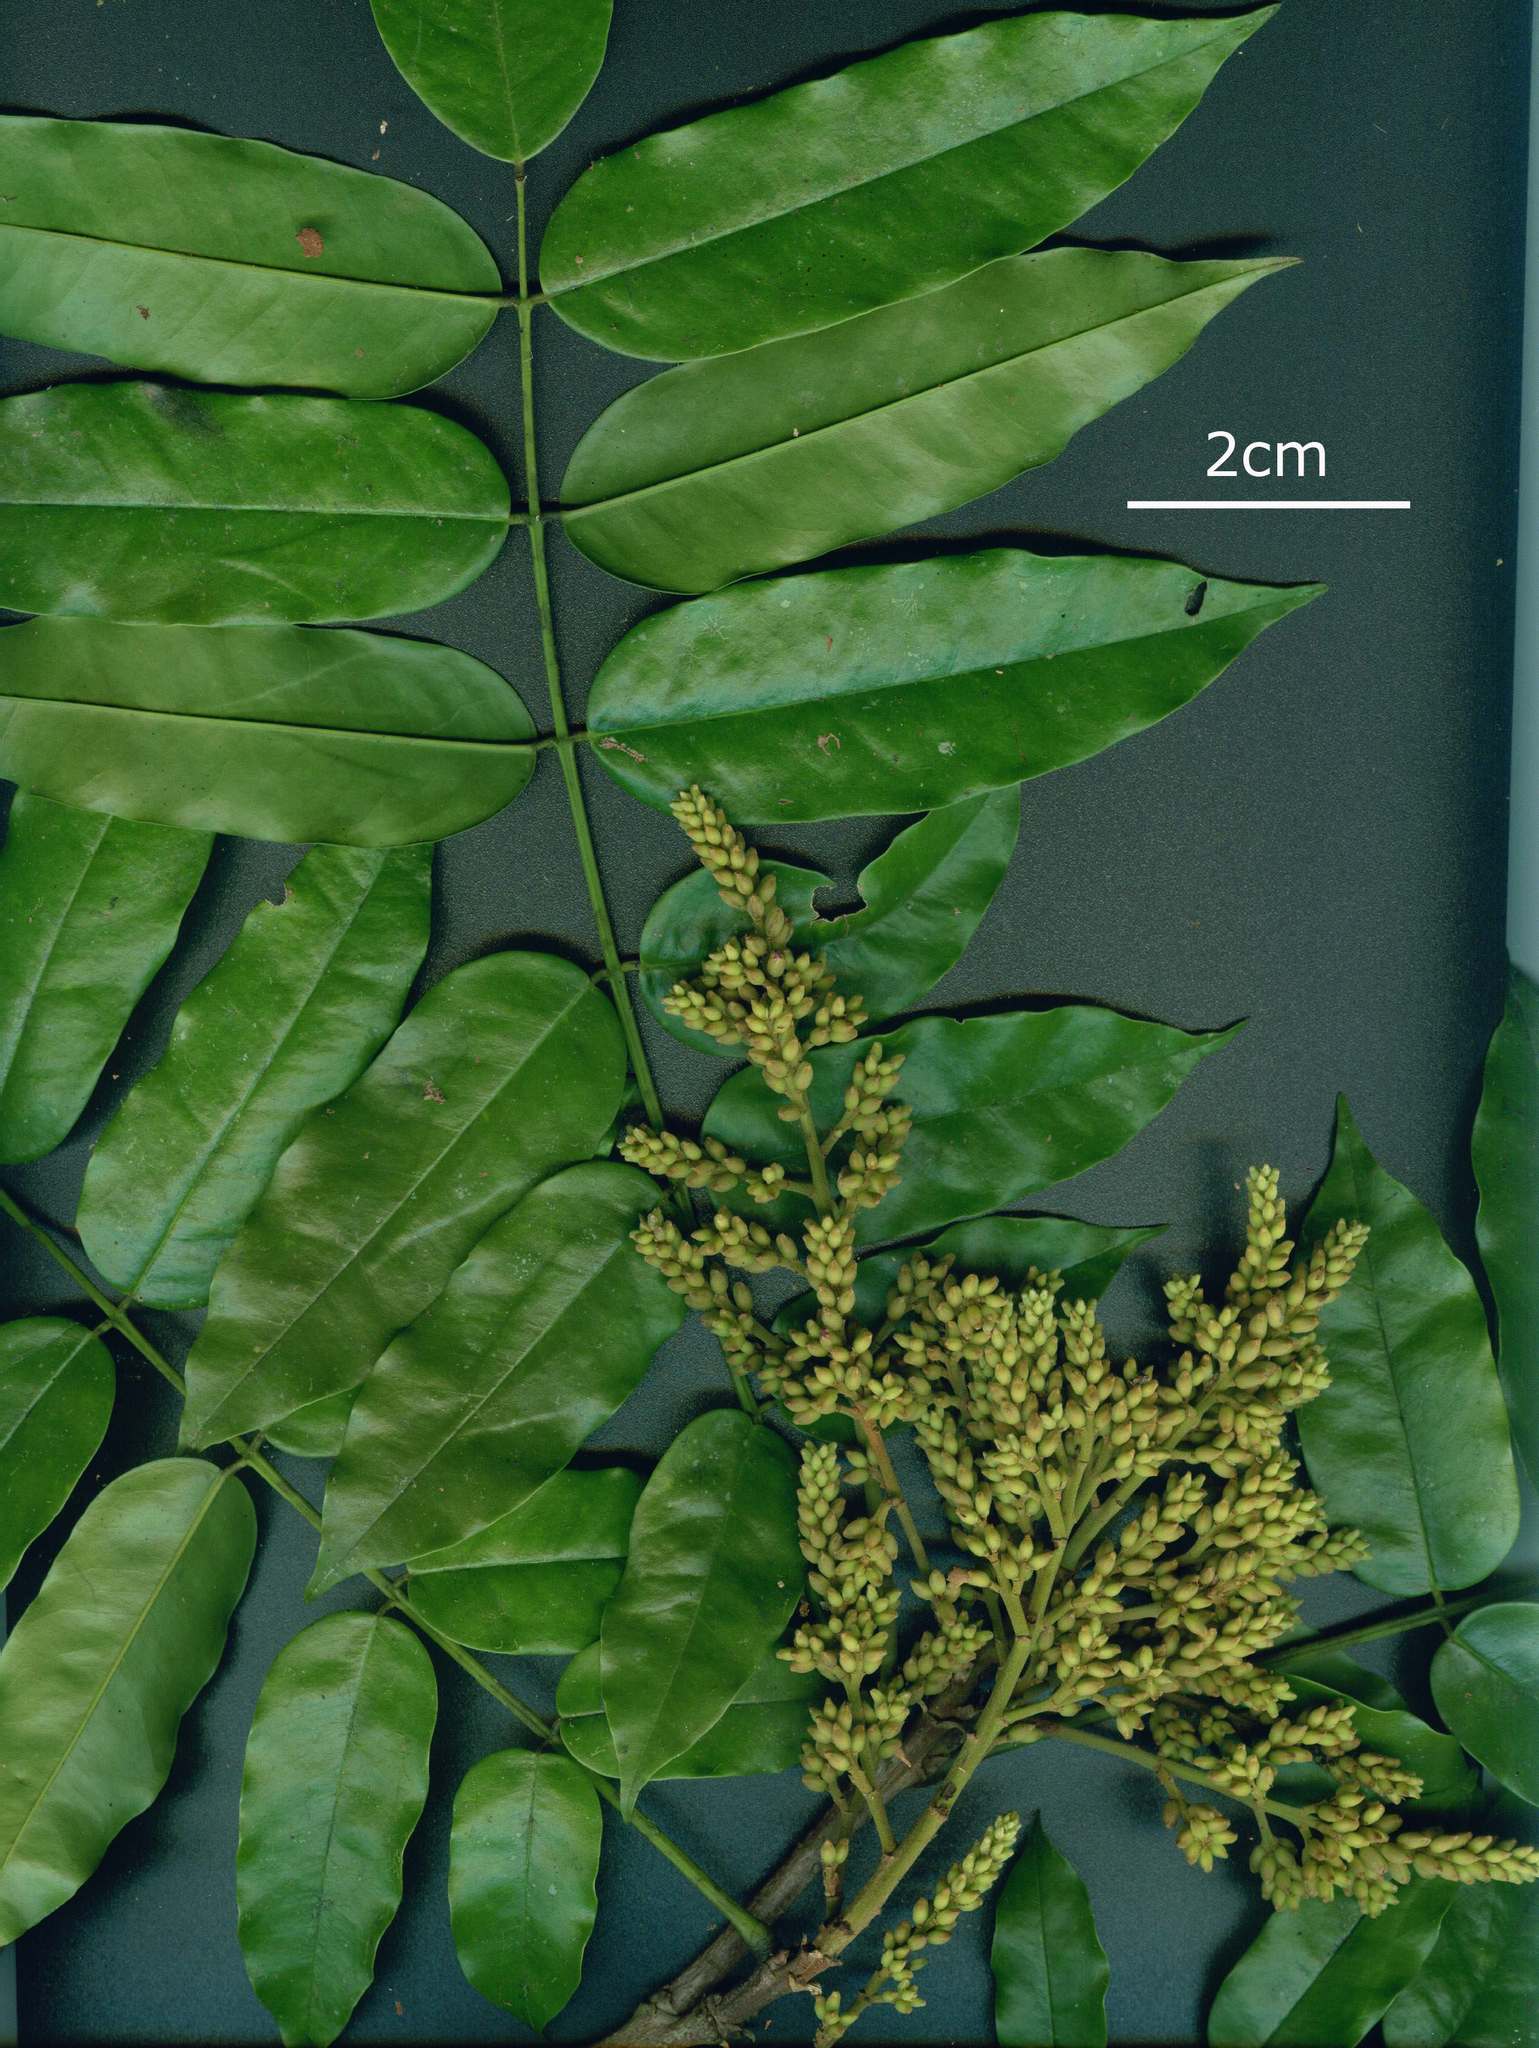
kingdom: Plantae
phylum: Tracheophyta
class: Magnoliopsida
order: Fabales
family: Fabaceae
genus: Andira
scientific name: Andira inermis
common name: Angelin
